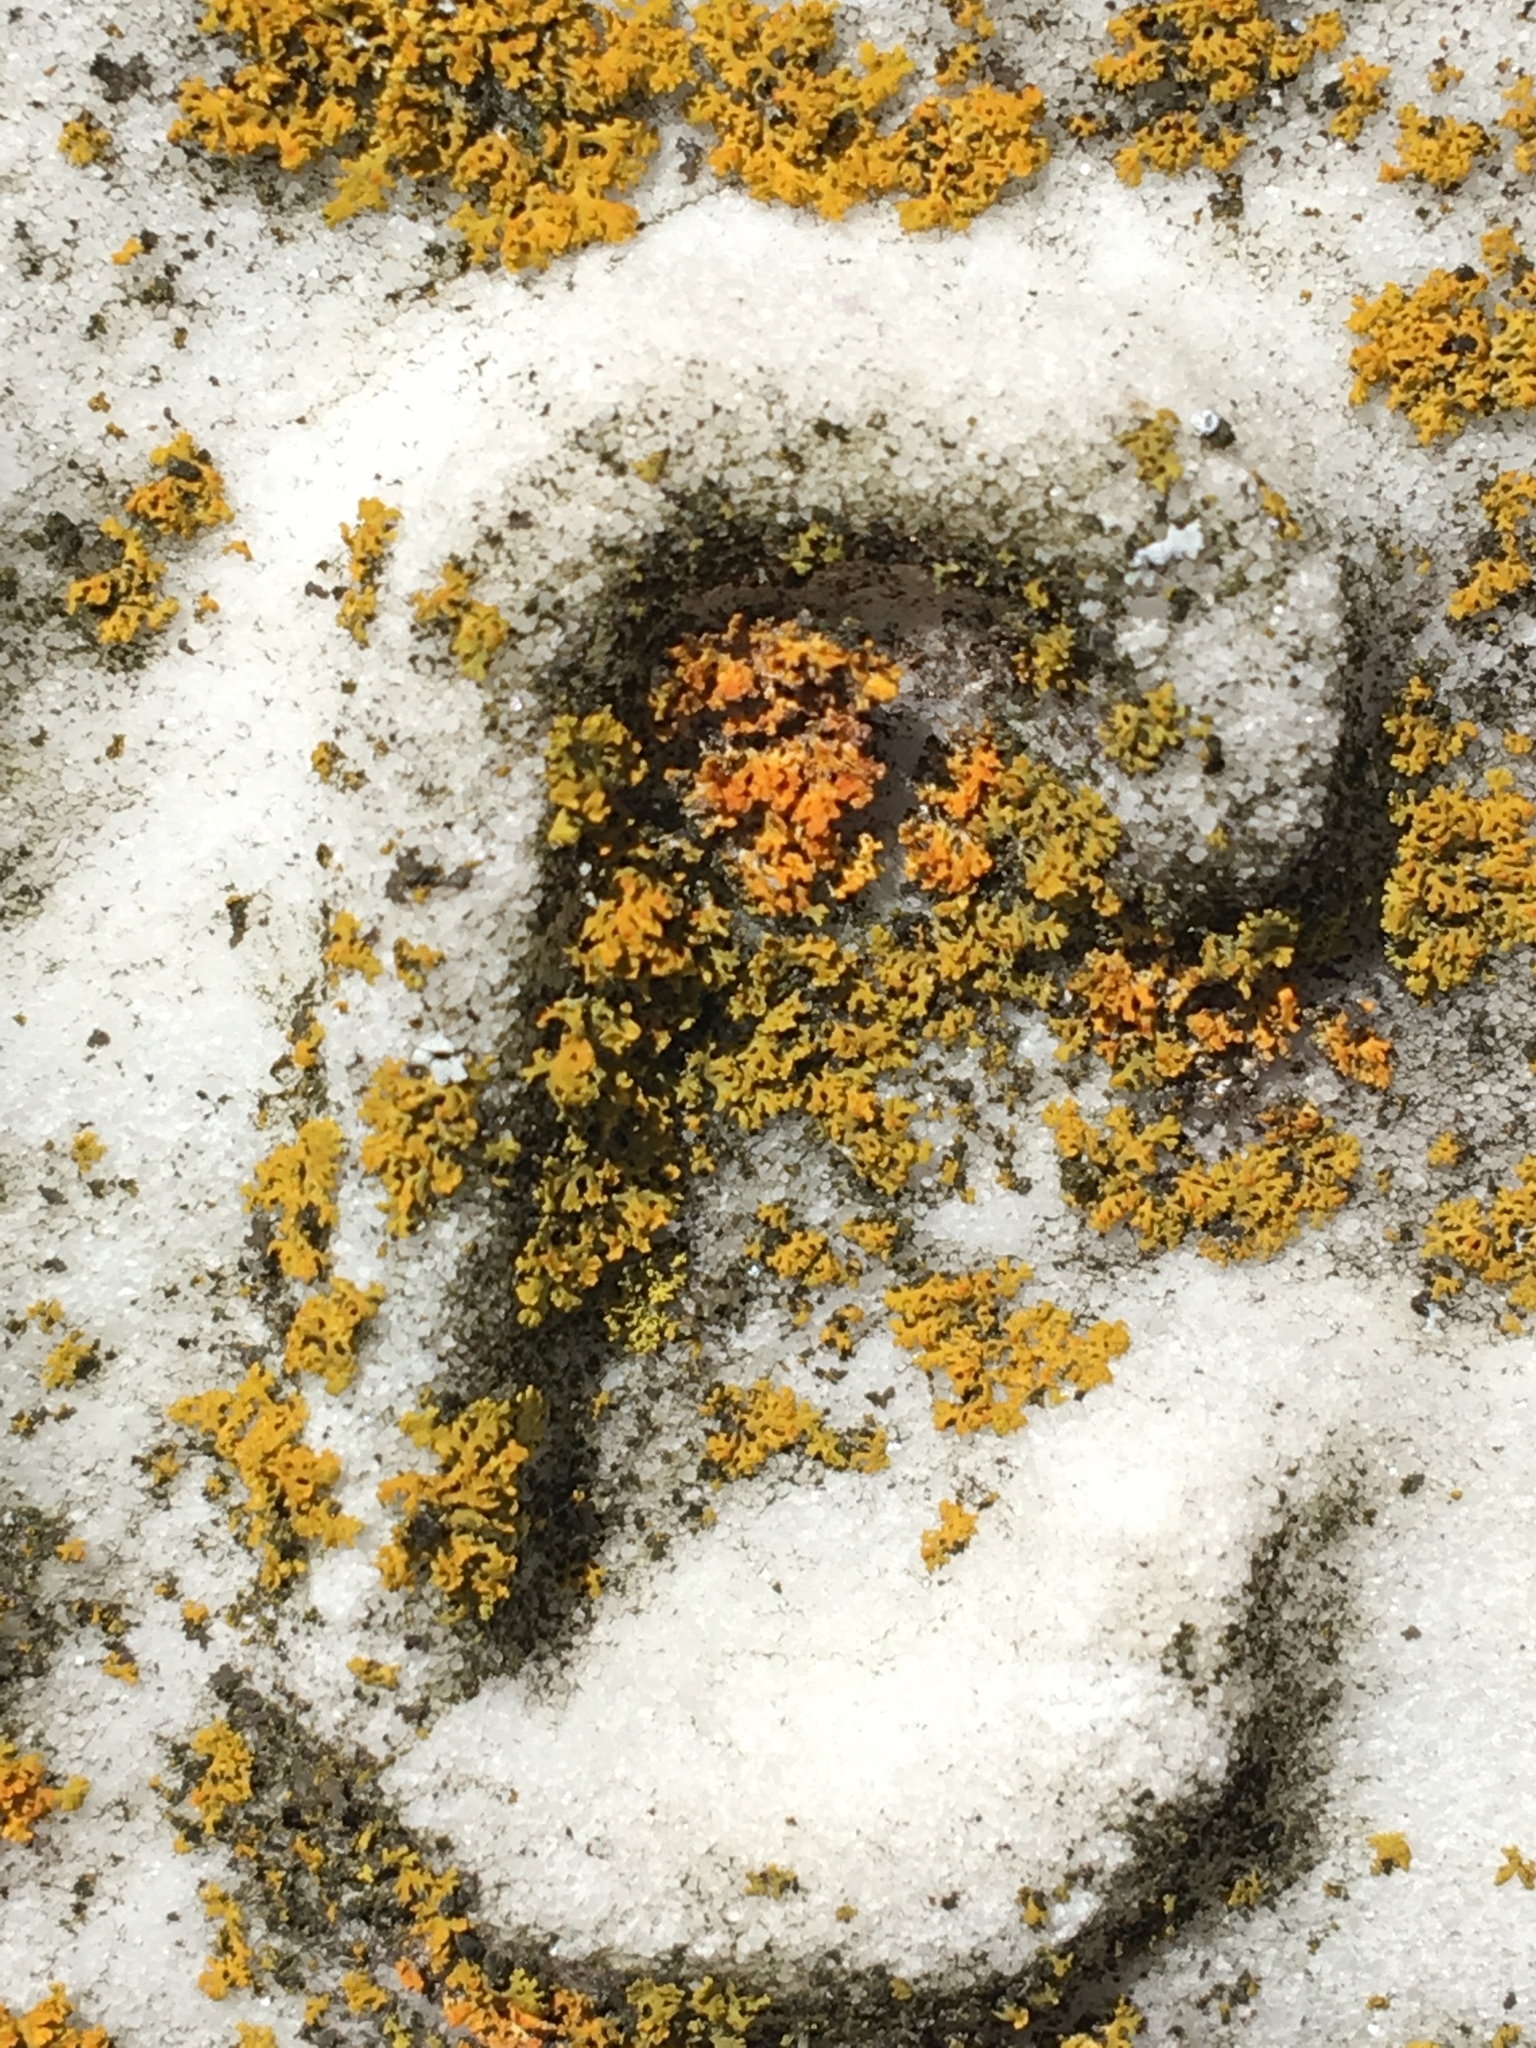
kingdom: Fungi
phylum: Ascomycota
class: Lecanoromycetes
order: Teloschistales
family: Teloschistaceae
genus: Gallowayella
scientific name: Gallowayella weberi
